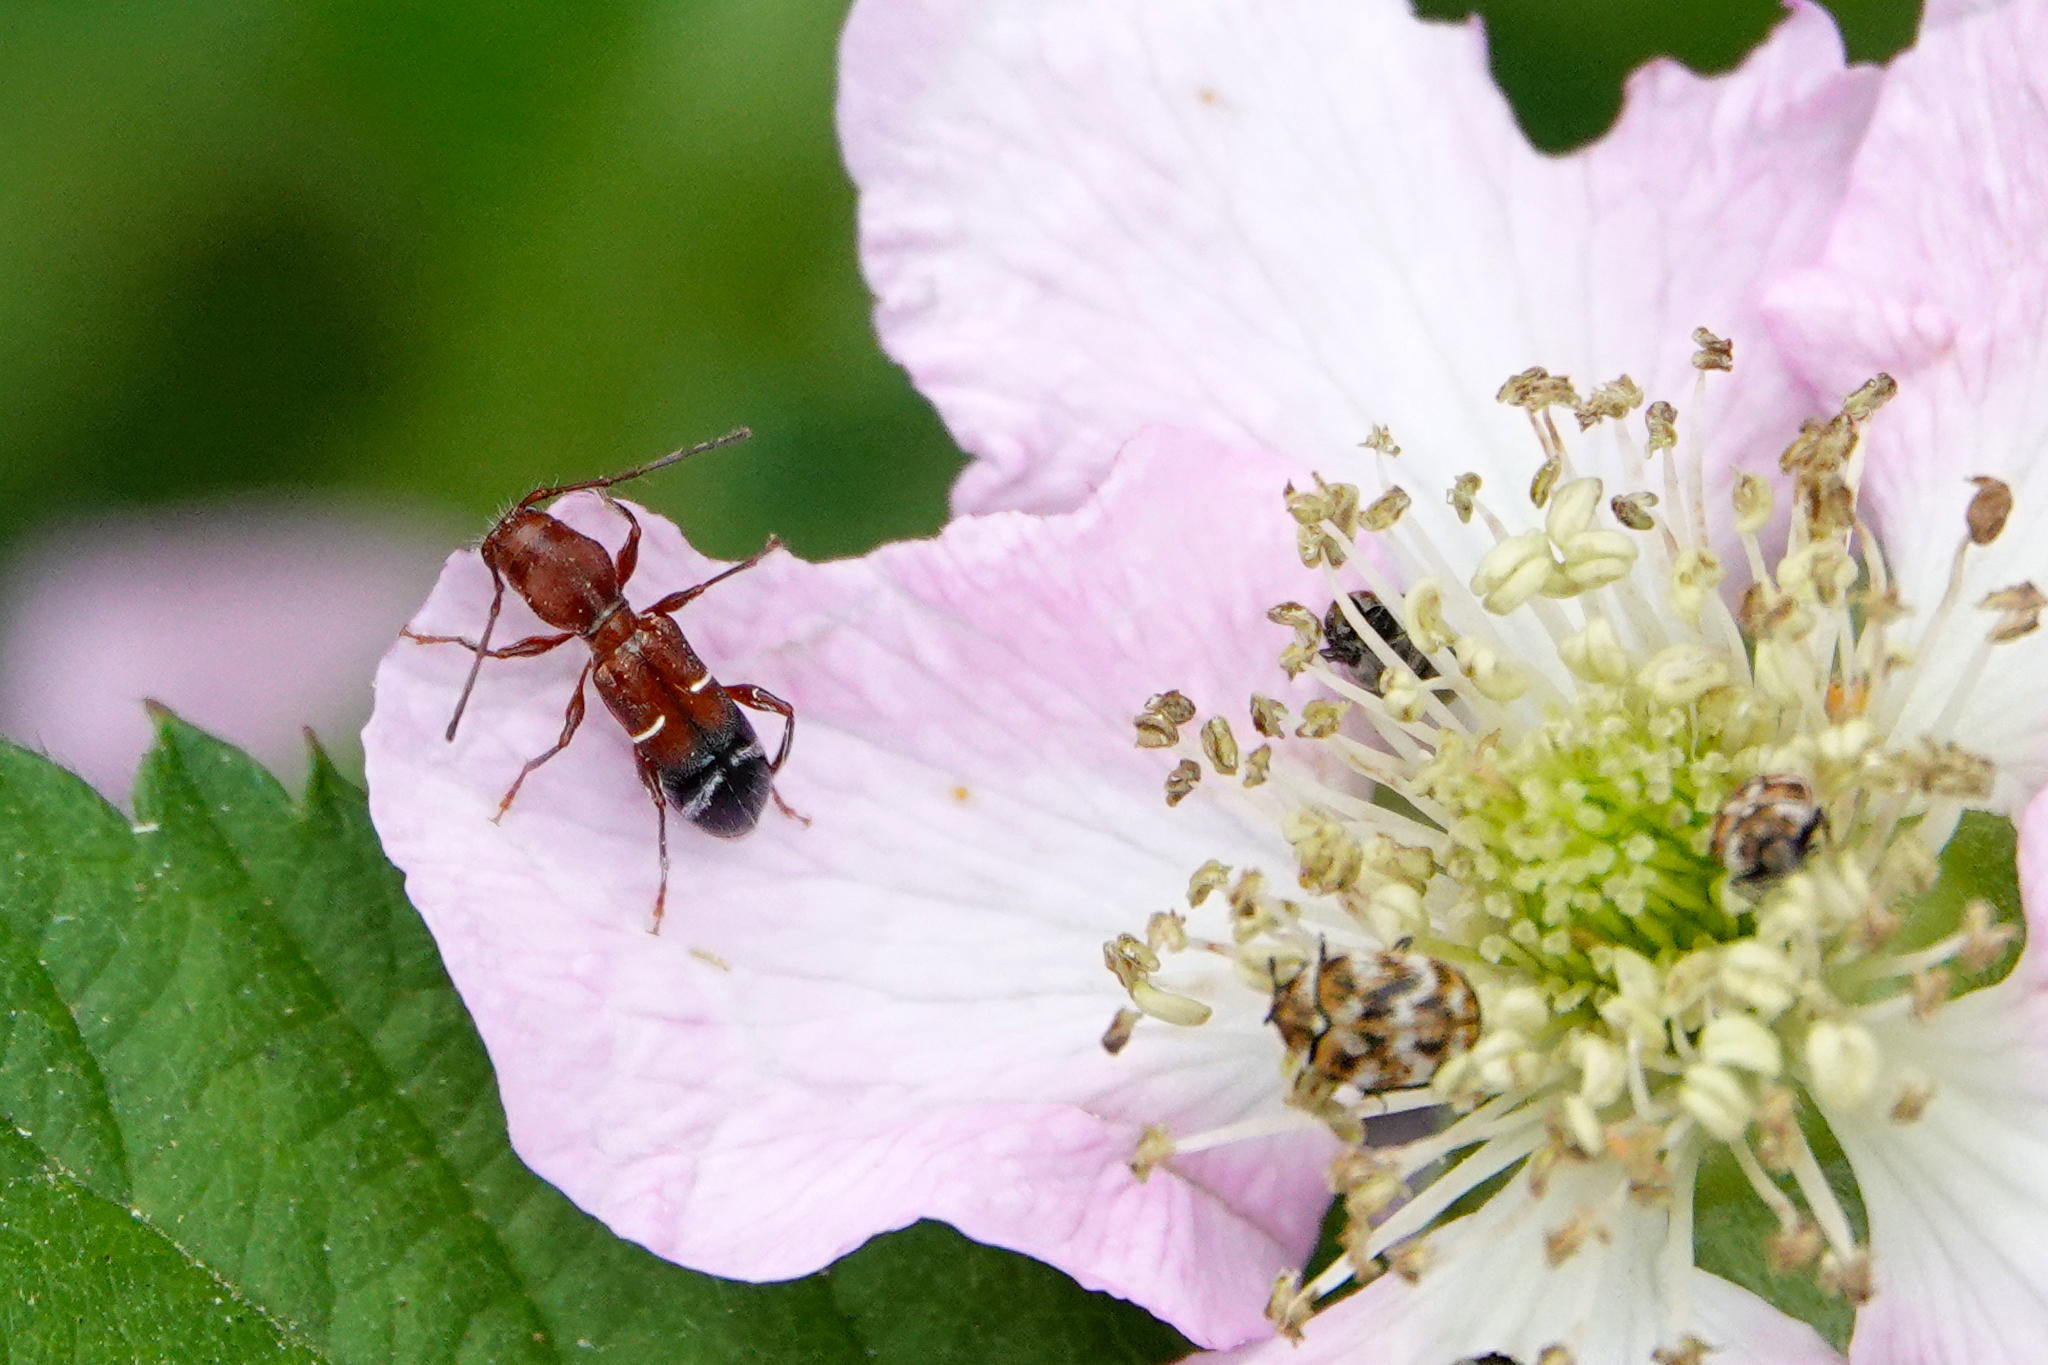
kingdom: Animalia
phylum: Arthropoda
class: Insecta
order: Coleoptera
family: Cerambycidae
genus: Euderces
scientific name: Euderces pini
